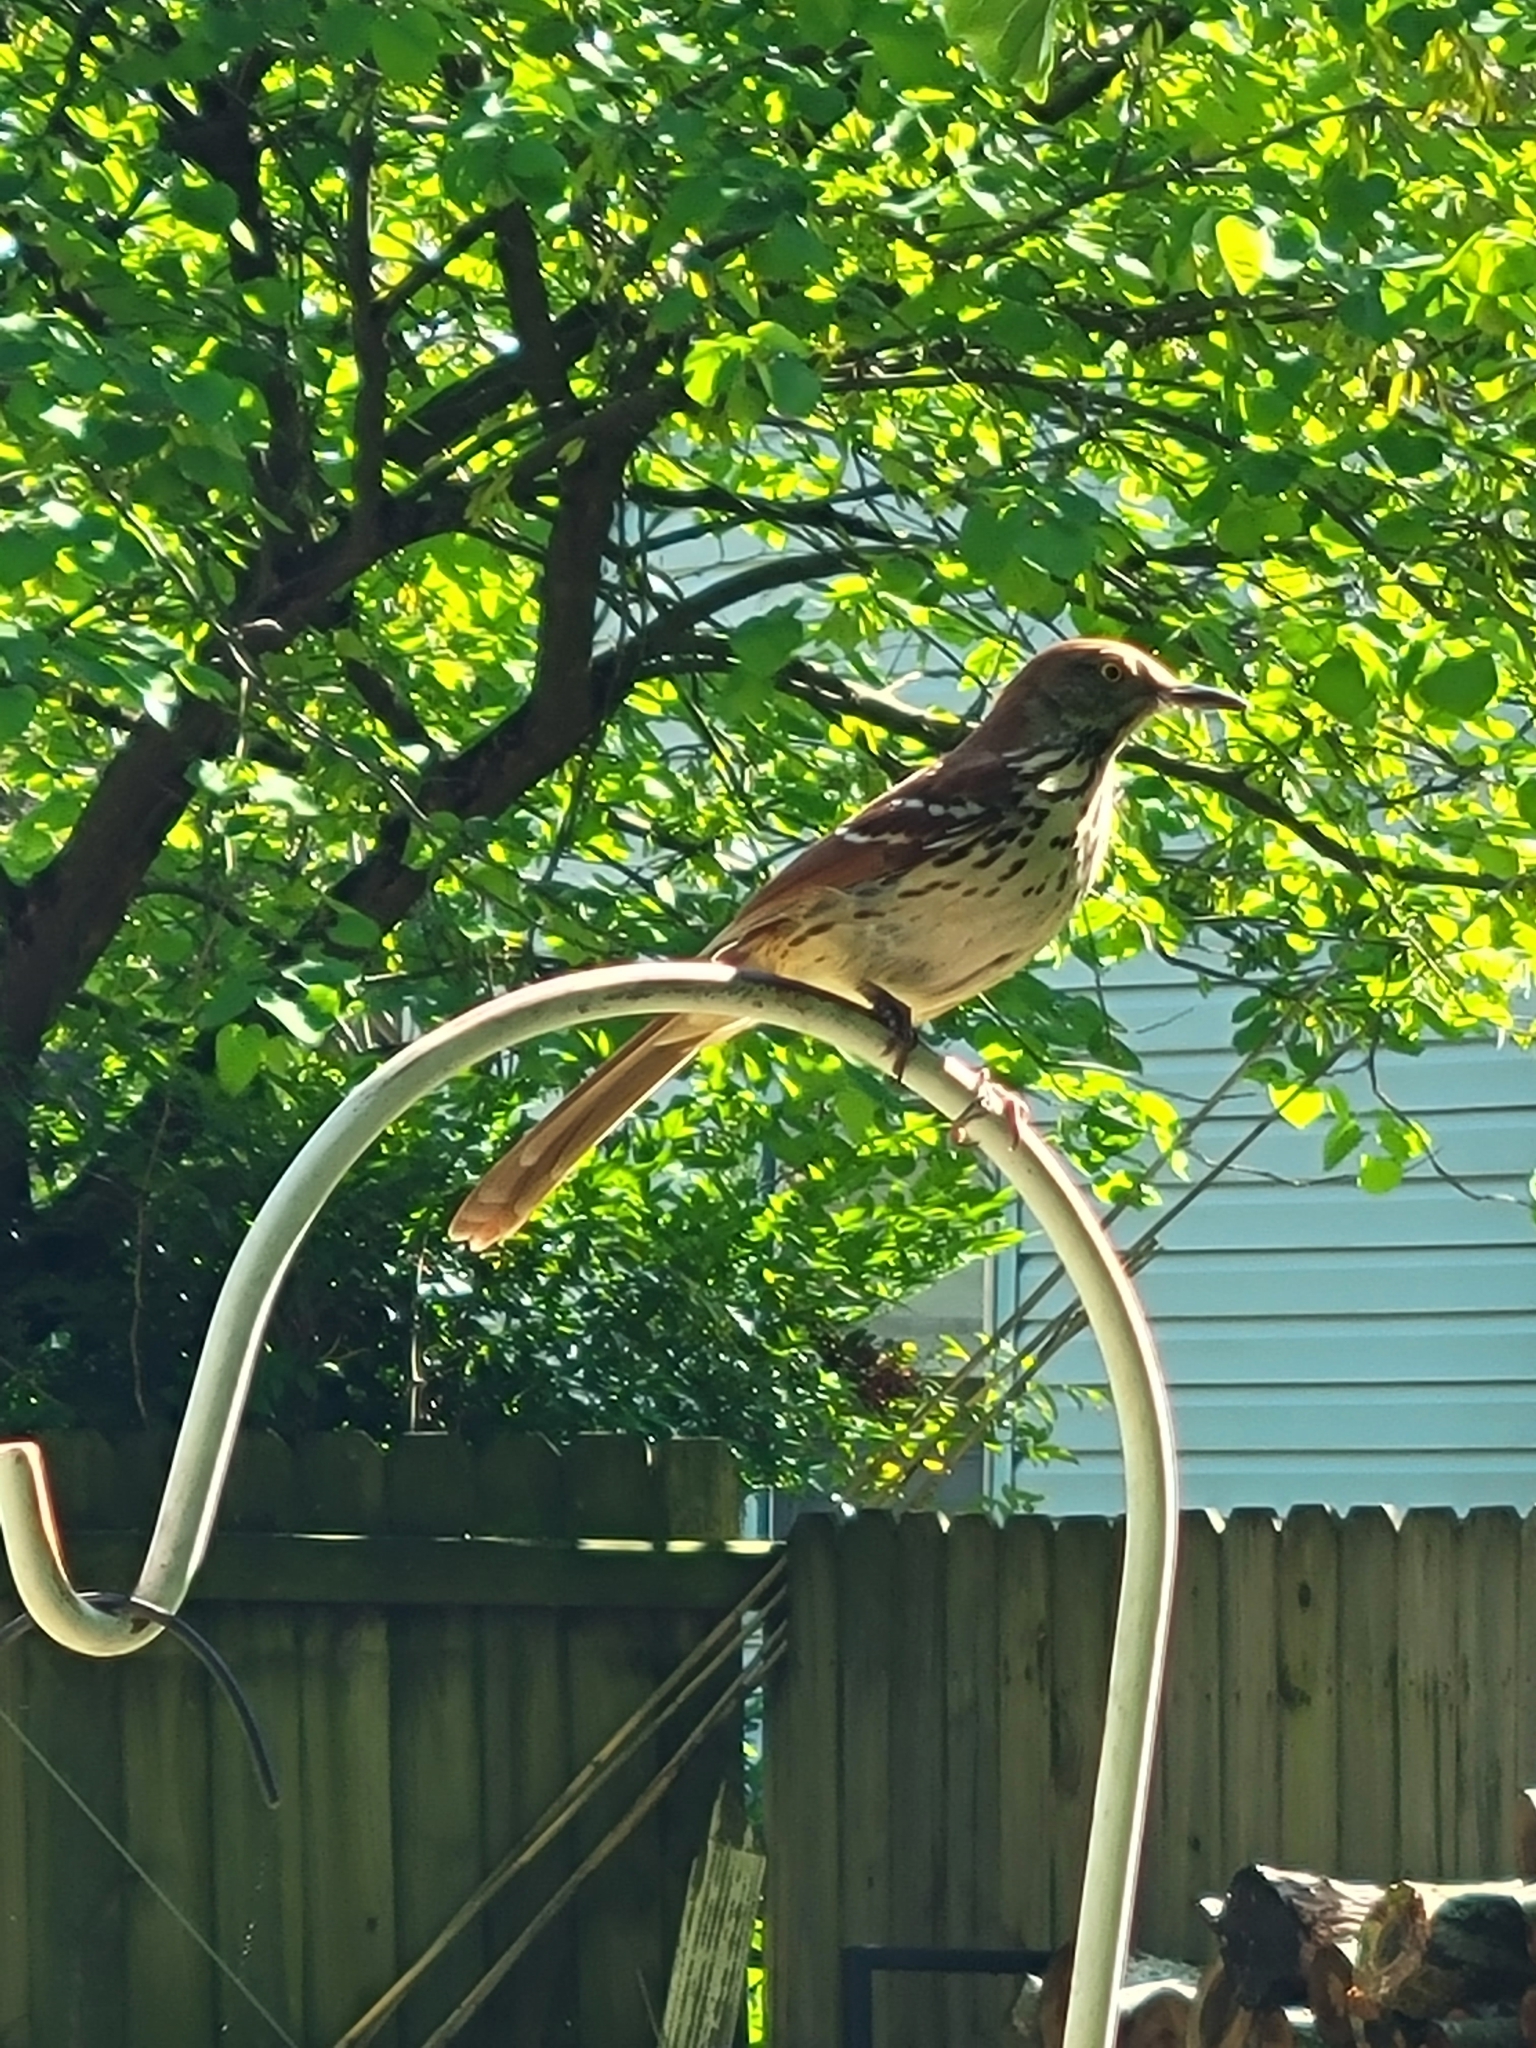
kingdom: Animalia
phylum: Chordata
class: Aves
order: Passeriformes
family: Mimidae
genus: Toxostoma
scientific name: Toxostoma rufum
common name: Brown thrasher
